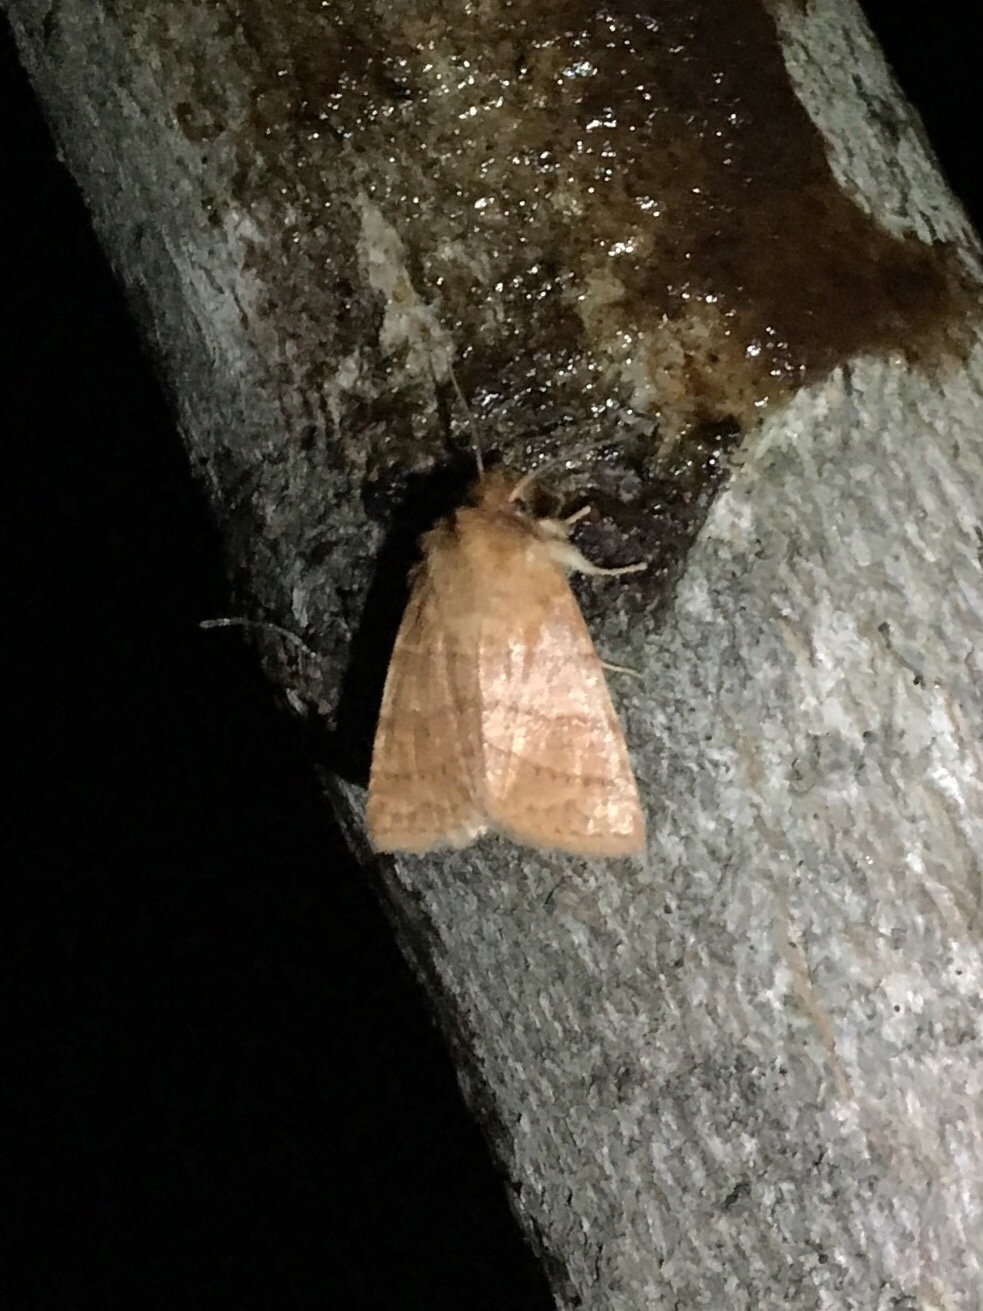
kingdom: Animalia
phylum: Arthropoda
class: Insecta
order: Lepidoptera
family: Noctuidae
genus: Pyreferra
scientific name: Pyreferra pettiti
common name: Pettit's sallow
